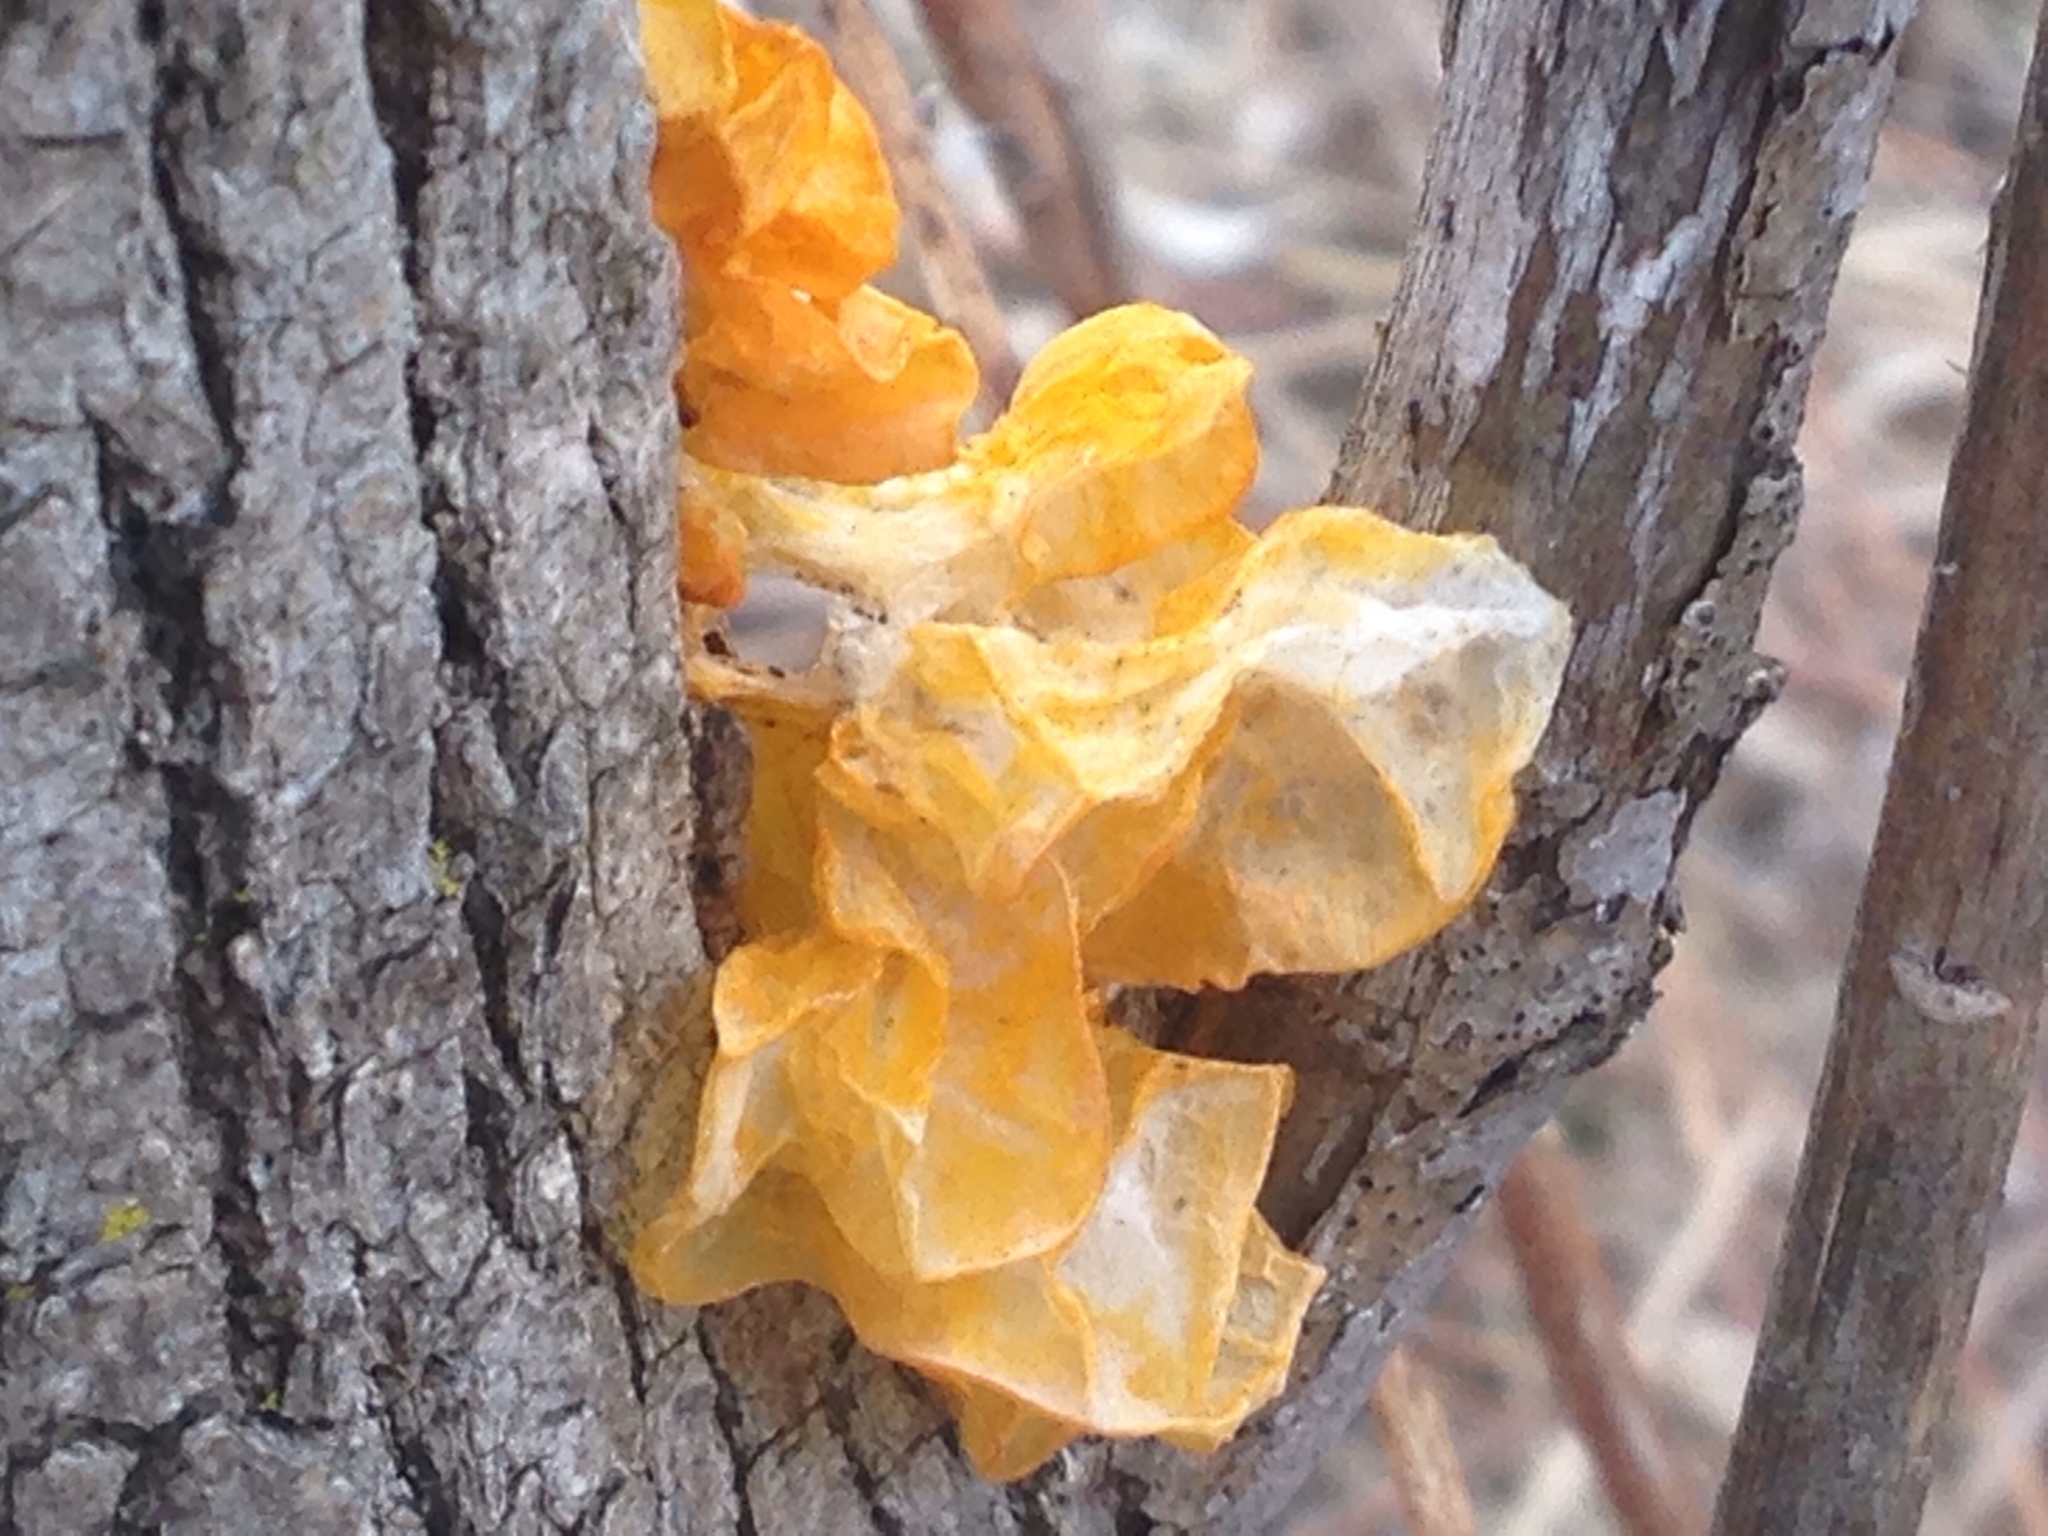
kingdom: Fungi
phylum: Basidiomycota
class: Tremellomycetes
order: Tremellales
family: Tremellaceae
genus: Tremella
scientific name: Tremella mesenterica
